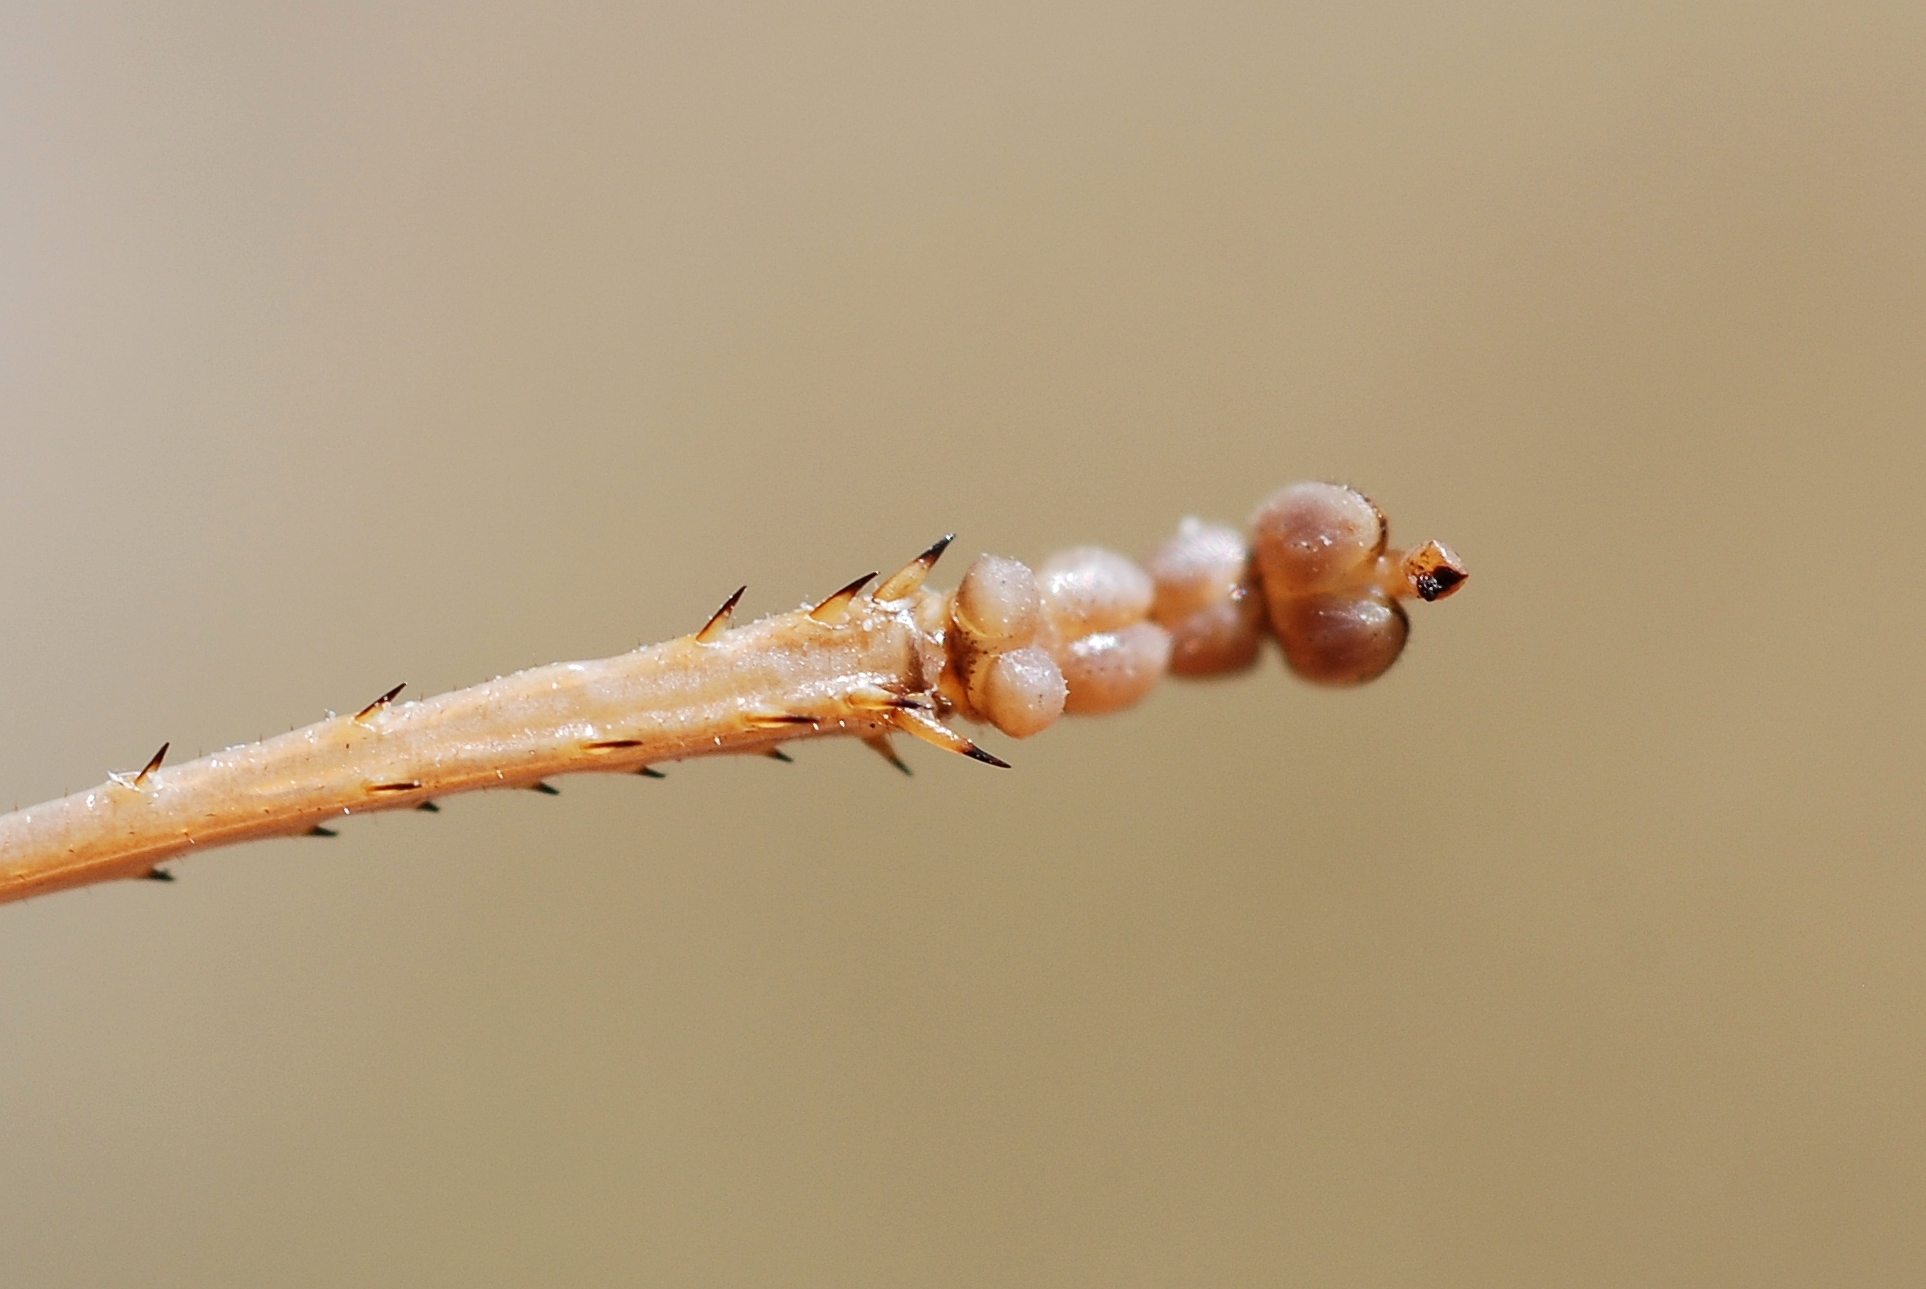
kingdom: Animalia
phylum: Arthropoda
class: Insecta
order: Orthoptera
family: Tettigoniidae
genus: Ephippiger
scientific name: Ephippiger terrestris
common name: Alpine saddle-backed bush-cricket
